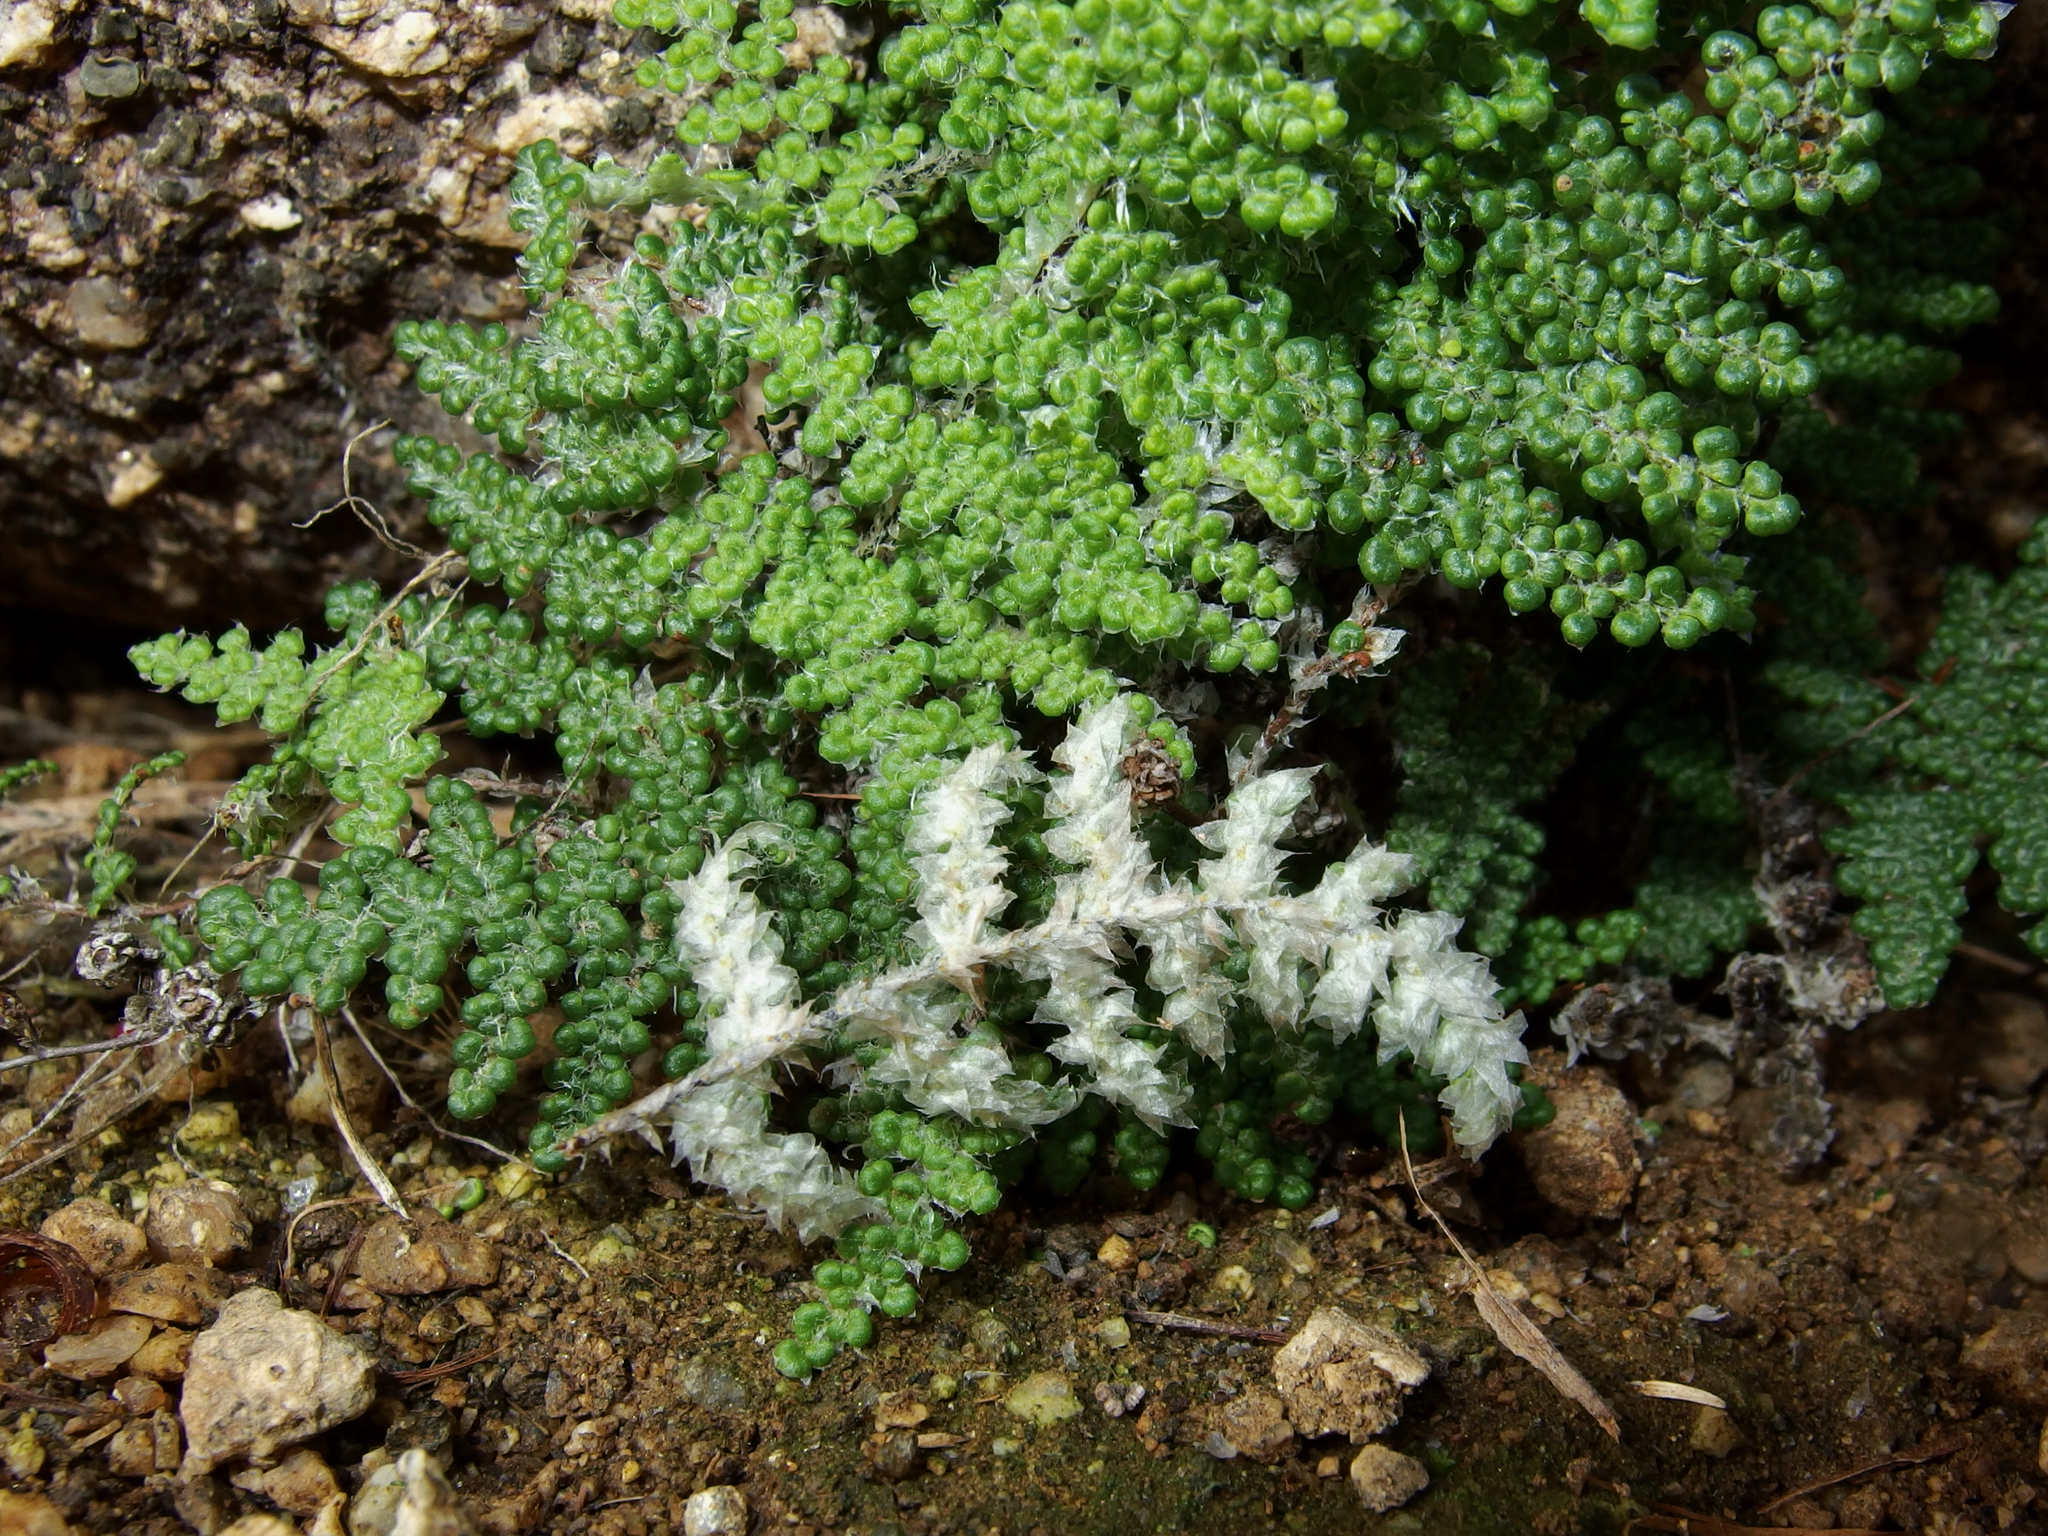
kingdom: Plantae
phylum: Tracheophyta
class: Polypodiopsida
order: Polypodiales
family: Pteridaceae
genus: Myriopteris
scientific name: Myriopteris covillei
